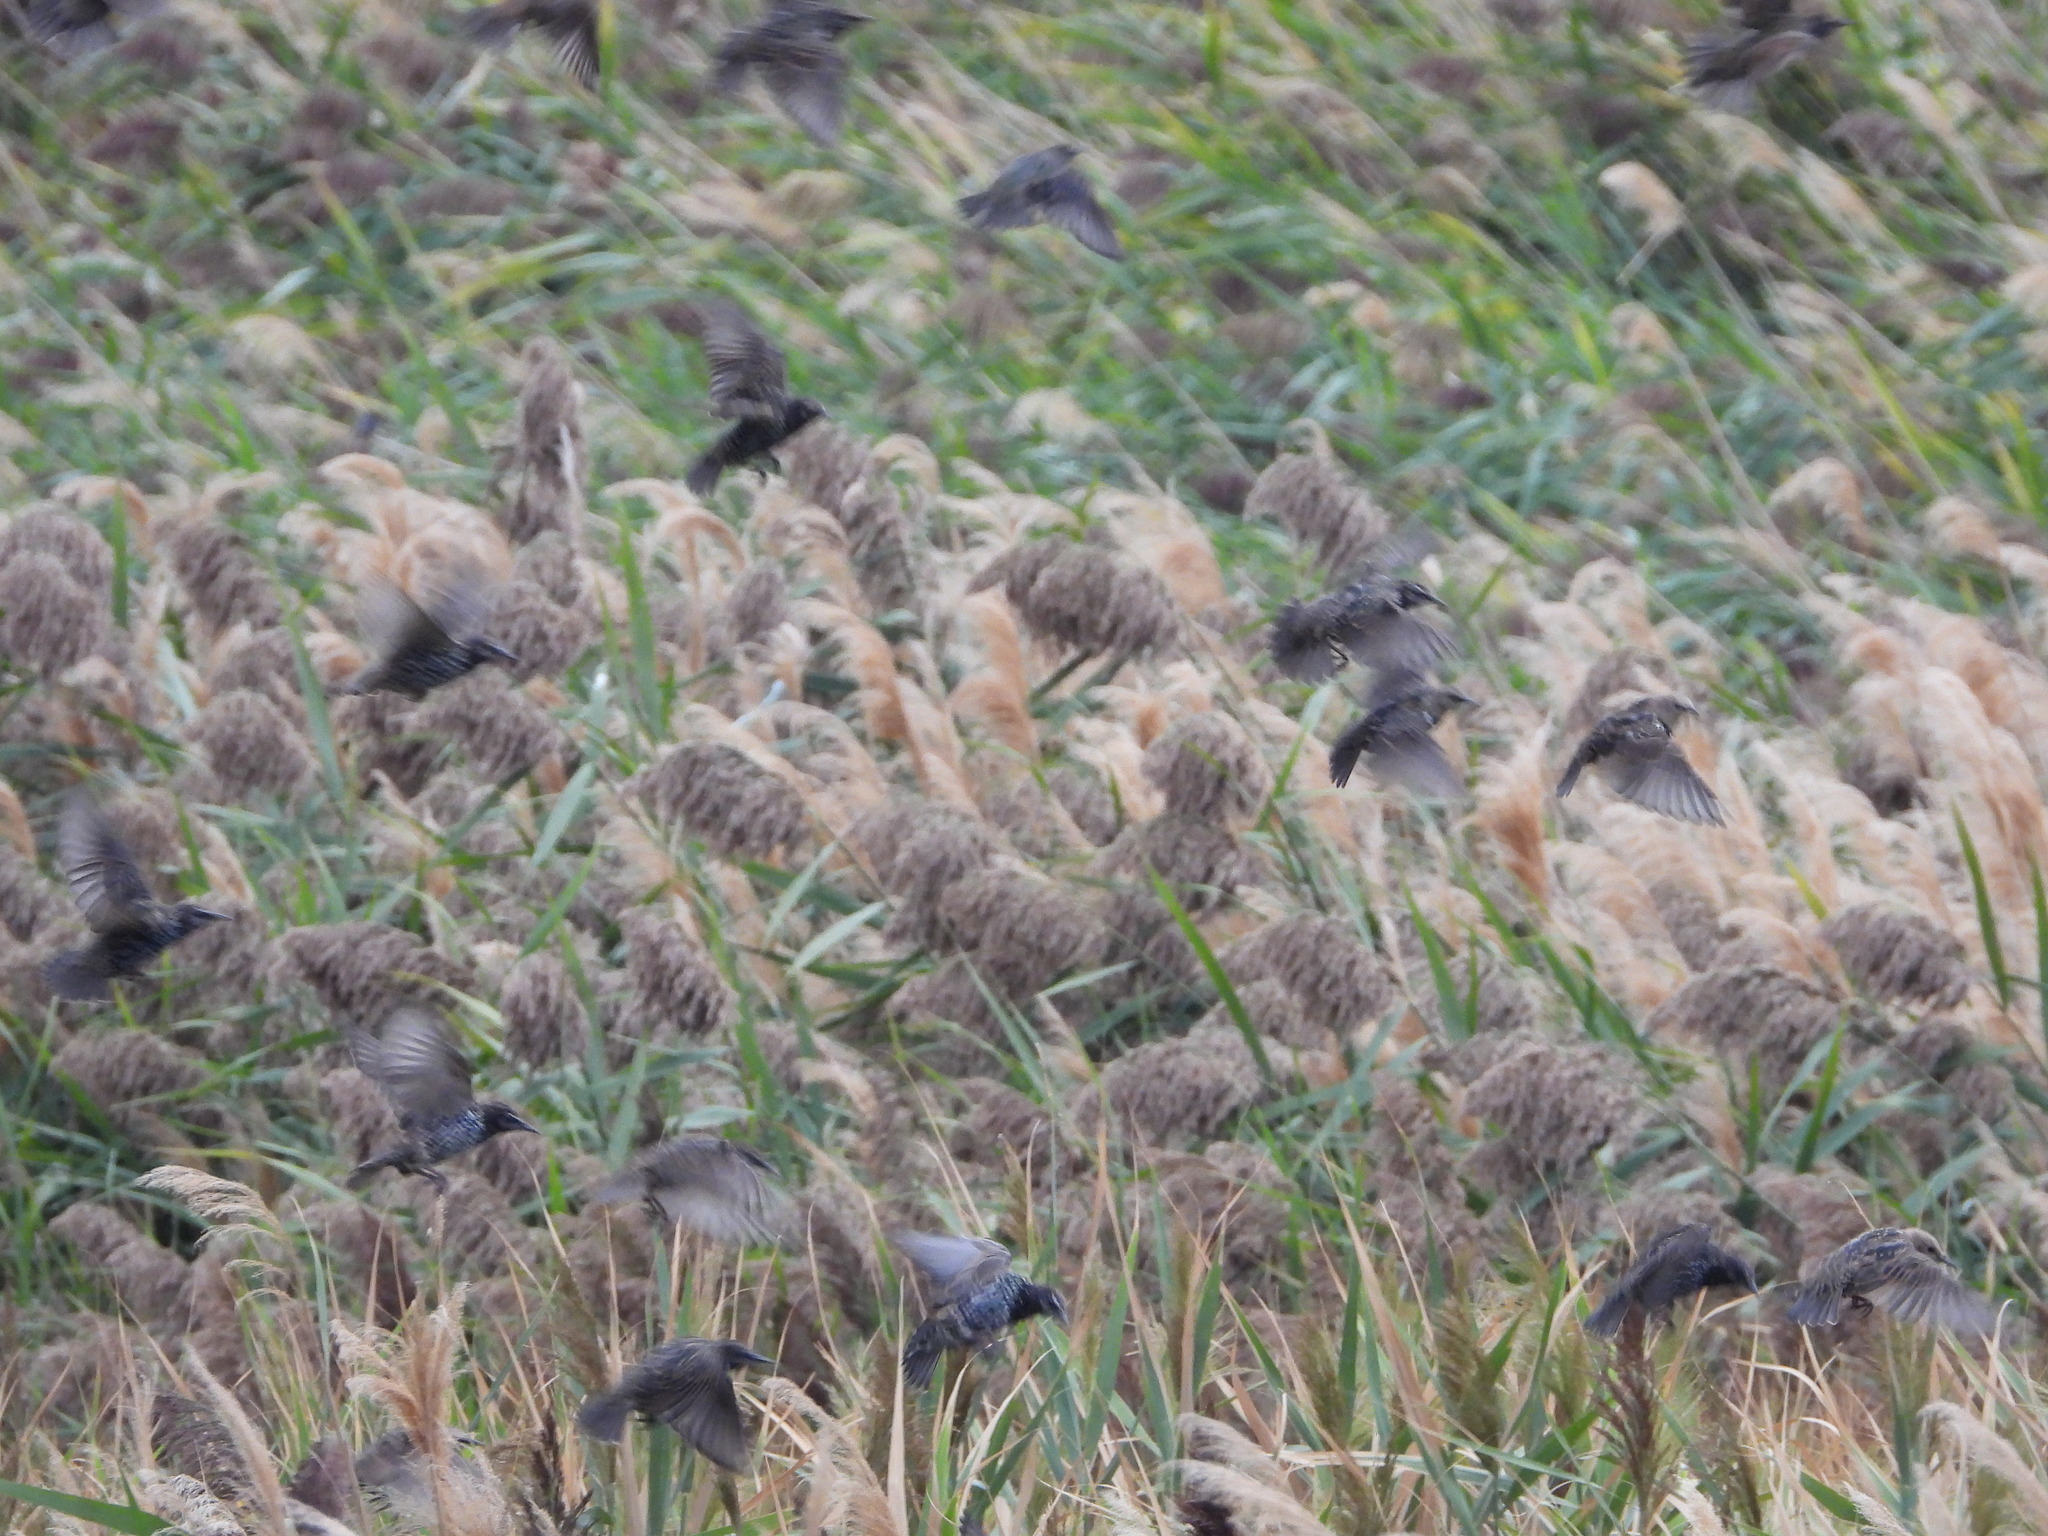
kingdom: Animalia
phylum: Chordata
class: Aves
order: Passeriformes
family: Sturnidae
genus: Sturnus
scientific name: Sturnus vulgaris
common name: Common starling
